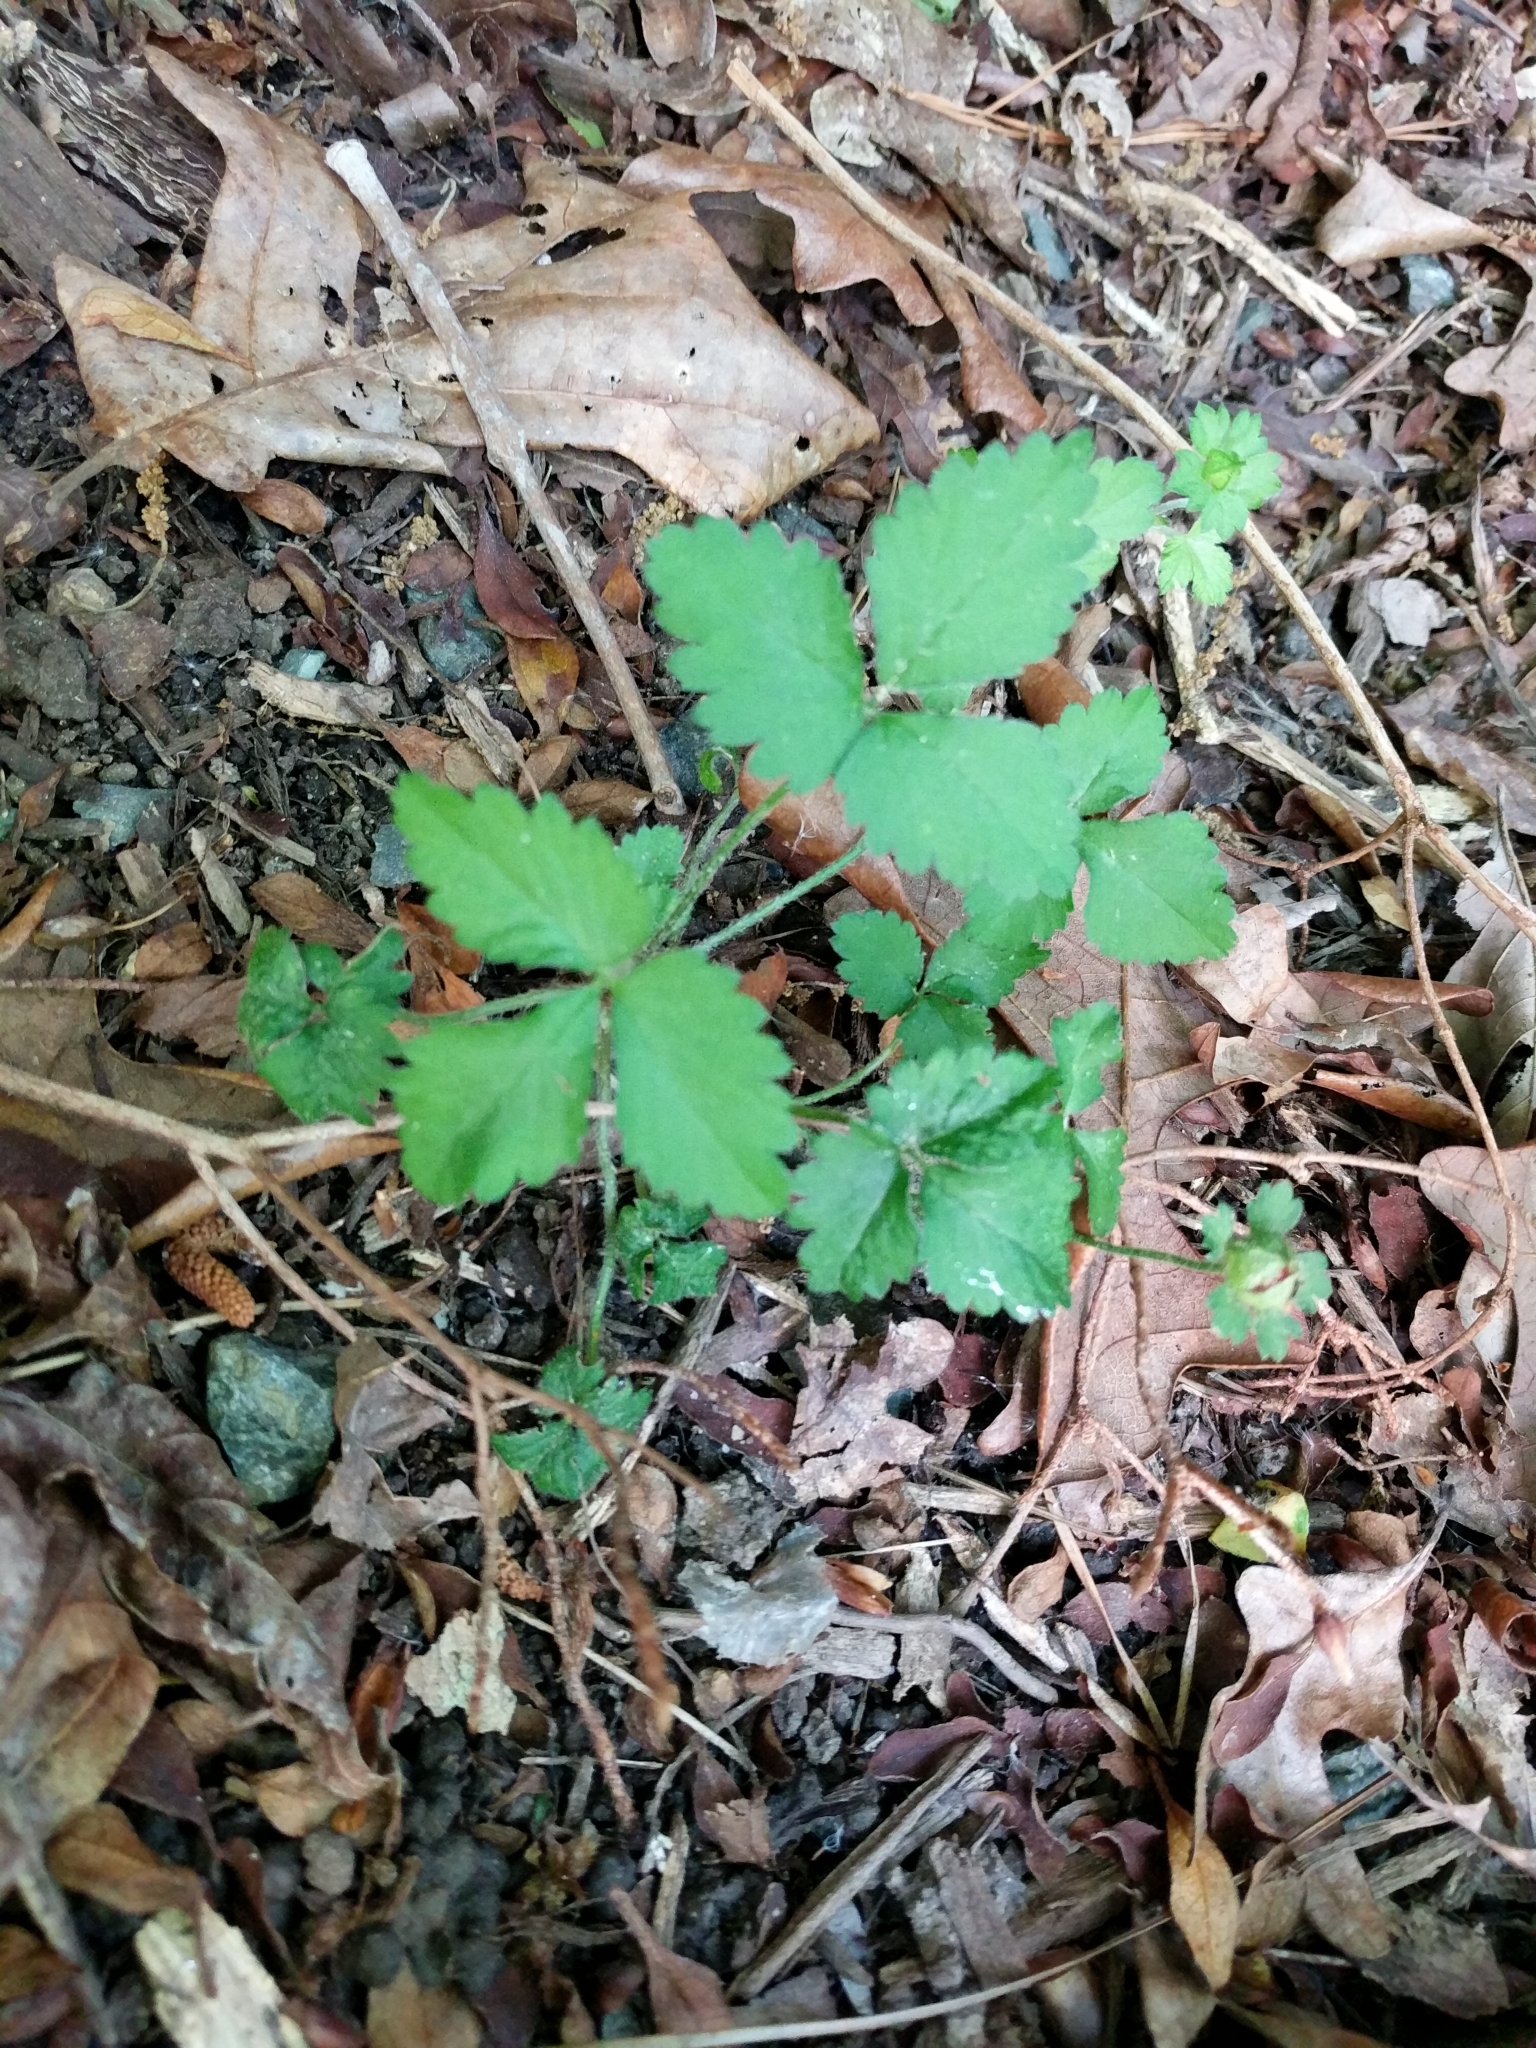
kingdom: Plantae
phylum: Tracheophyta
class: Magnoliopsida
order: Rosales
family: Rosaceae
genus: Potentilla
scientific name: Potentilla indica
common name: Yellow-flowered strawberry
